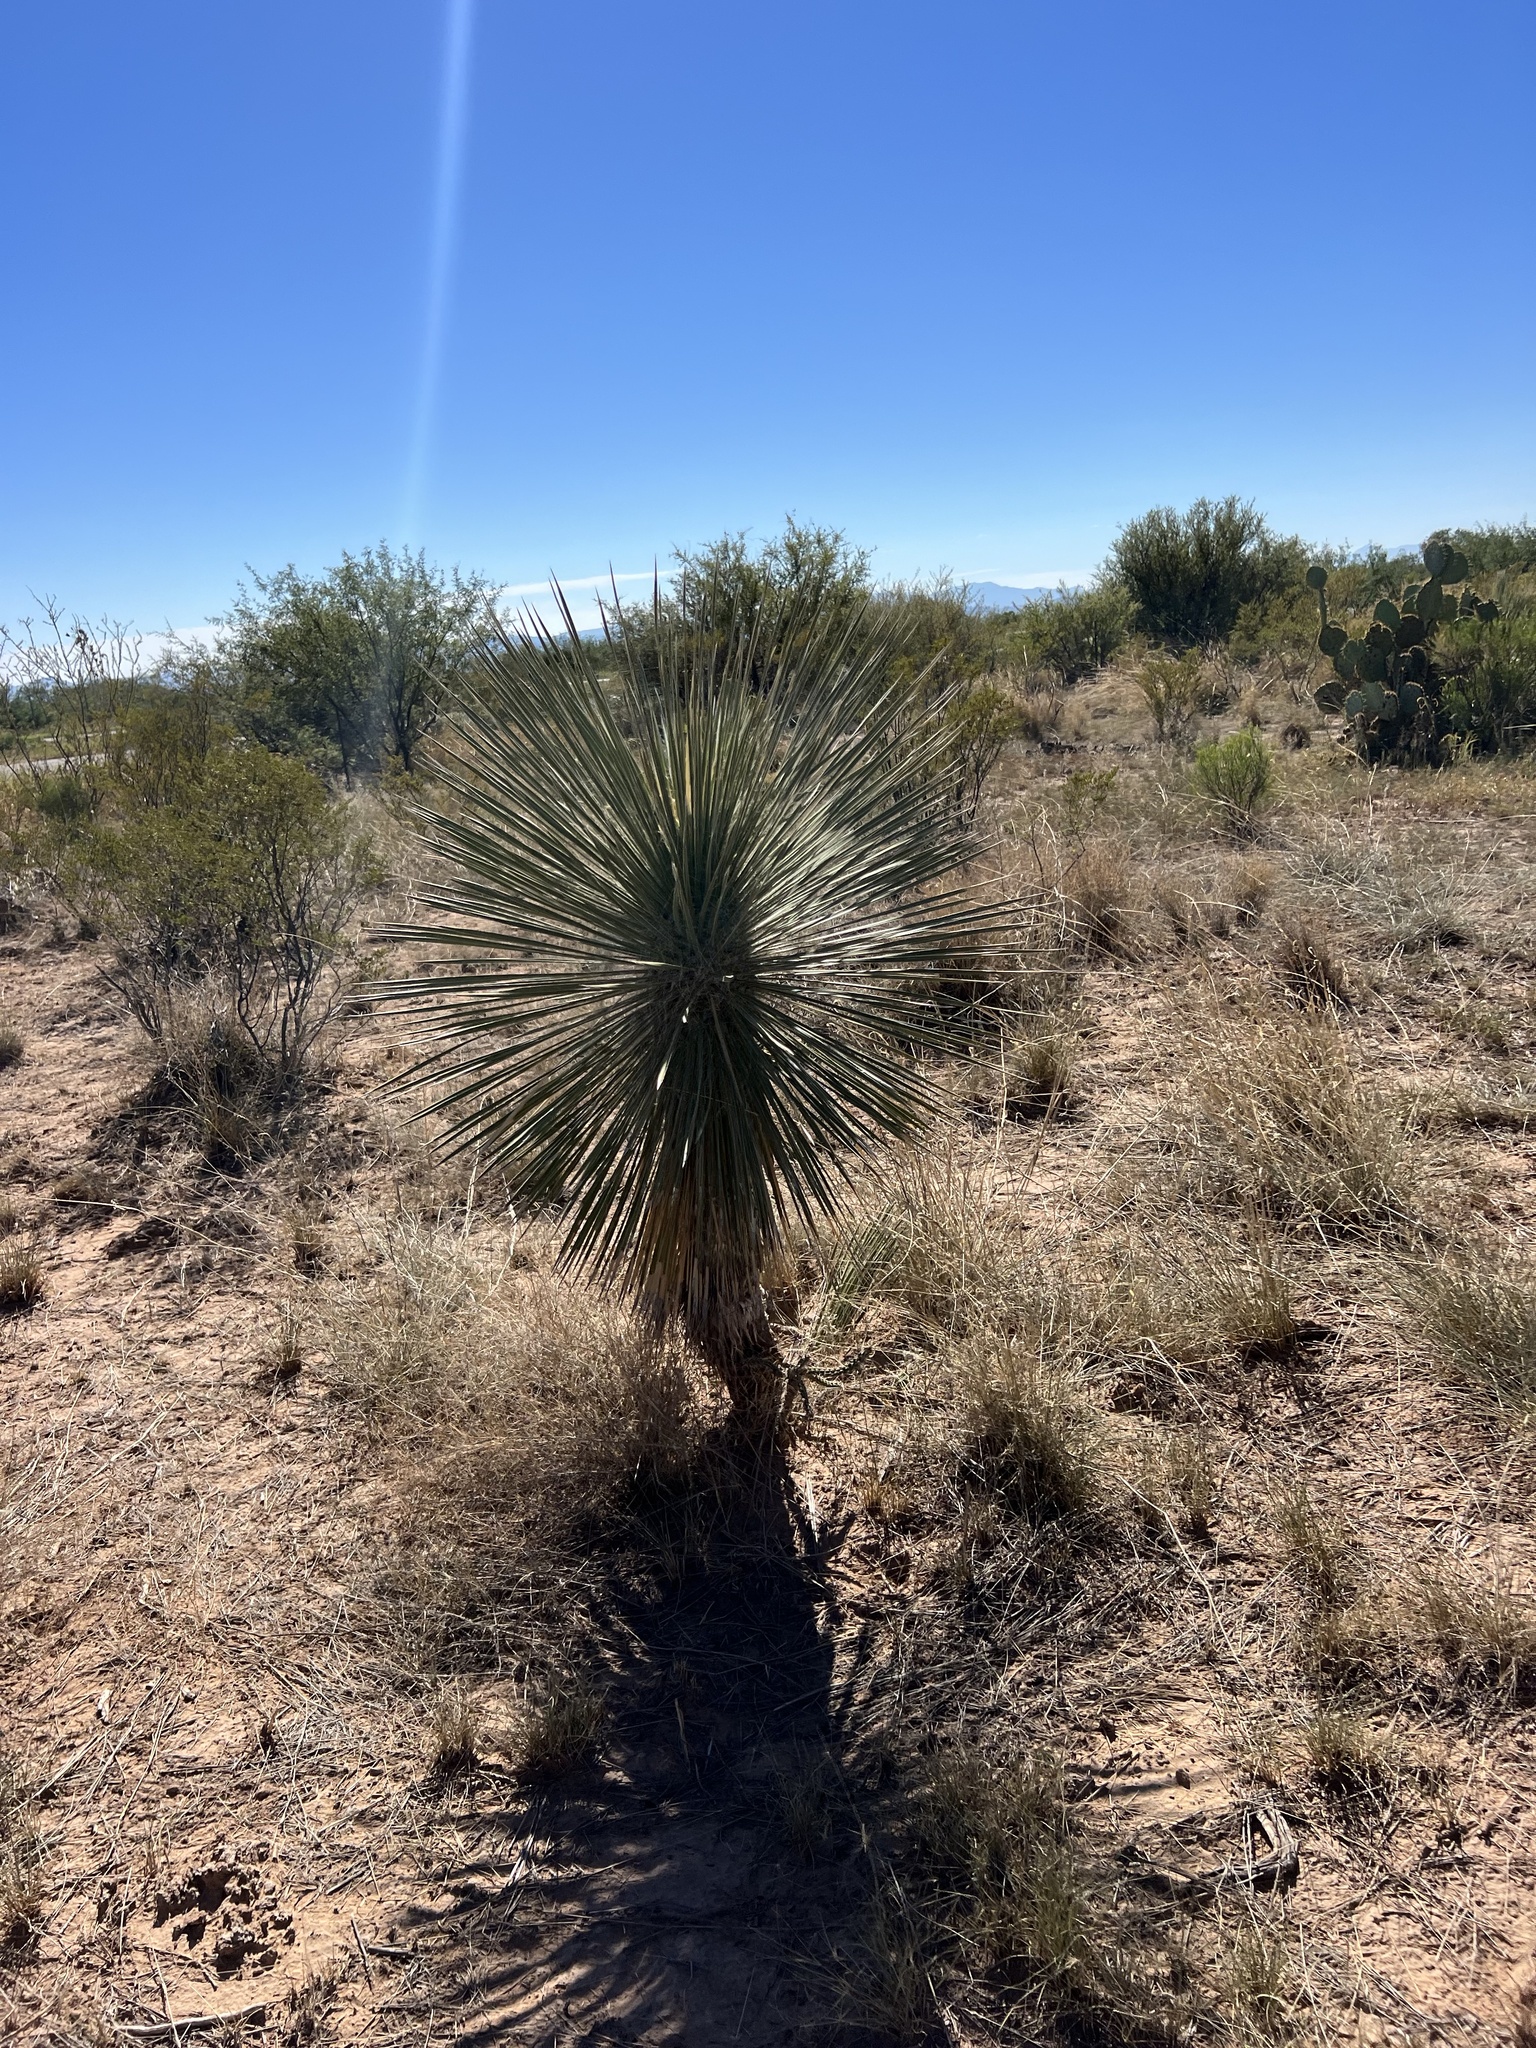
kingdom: Plantae
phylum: Tracheophyta
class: Liliopsida
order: Asparagales
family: Asparagaceae
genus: Yucca
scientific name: Yucca elata
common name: Palmella
